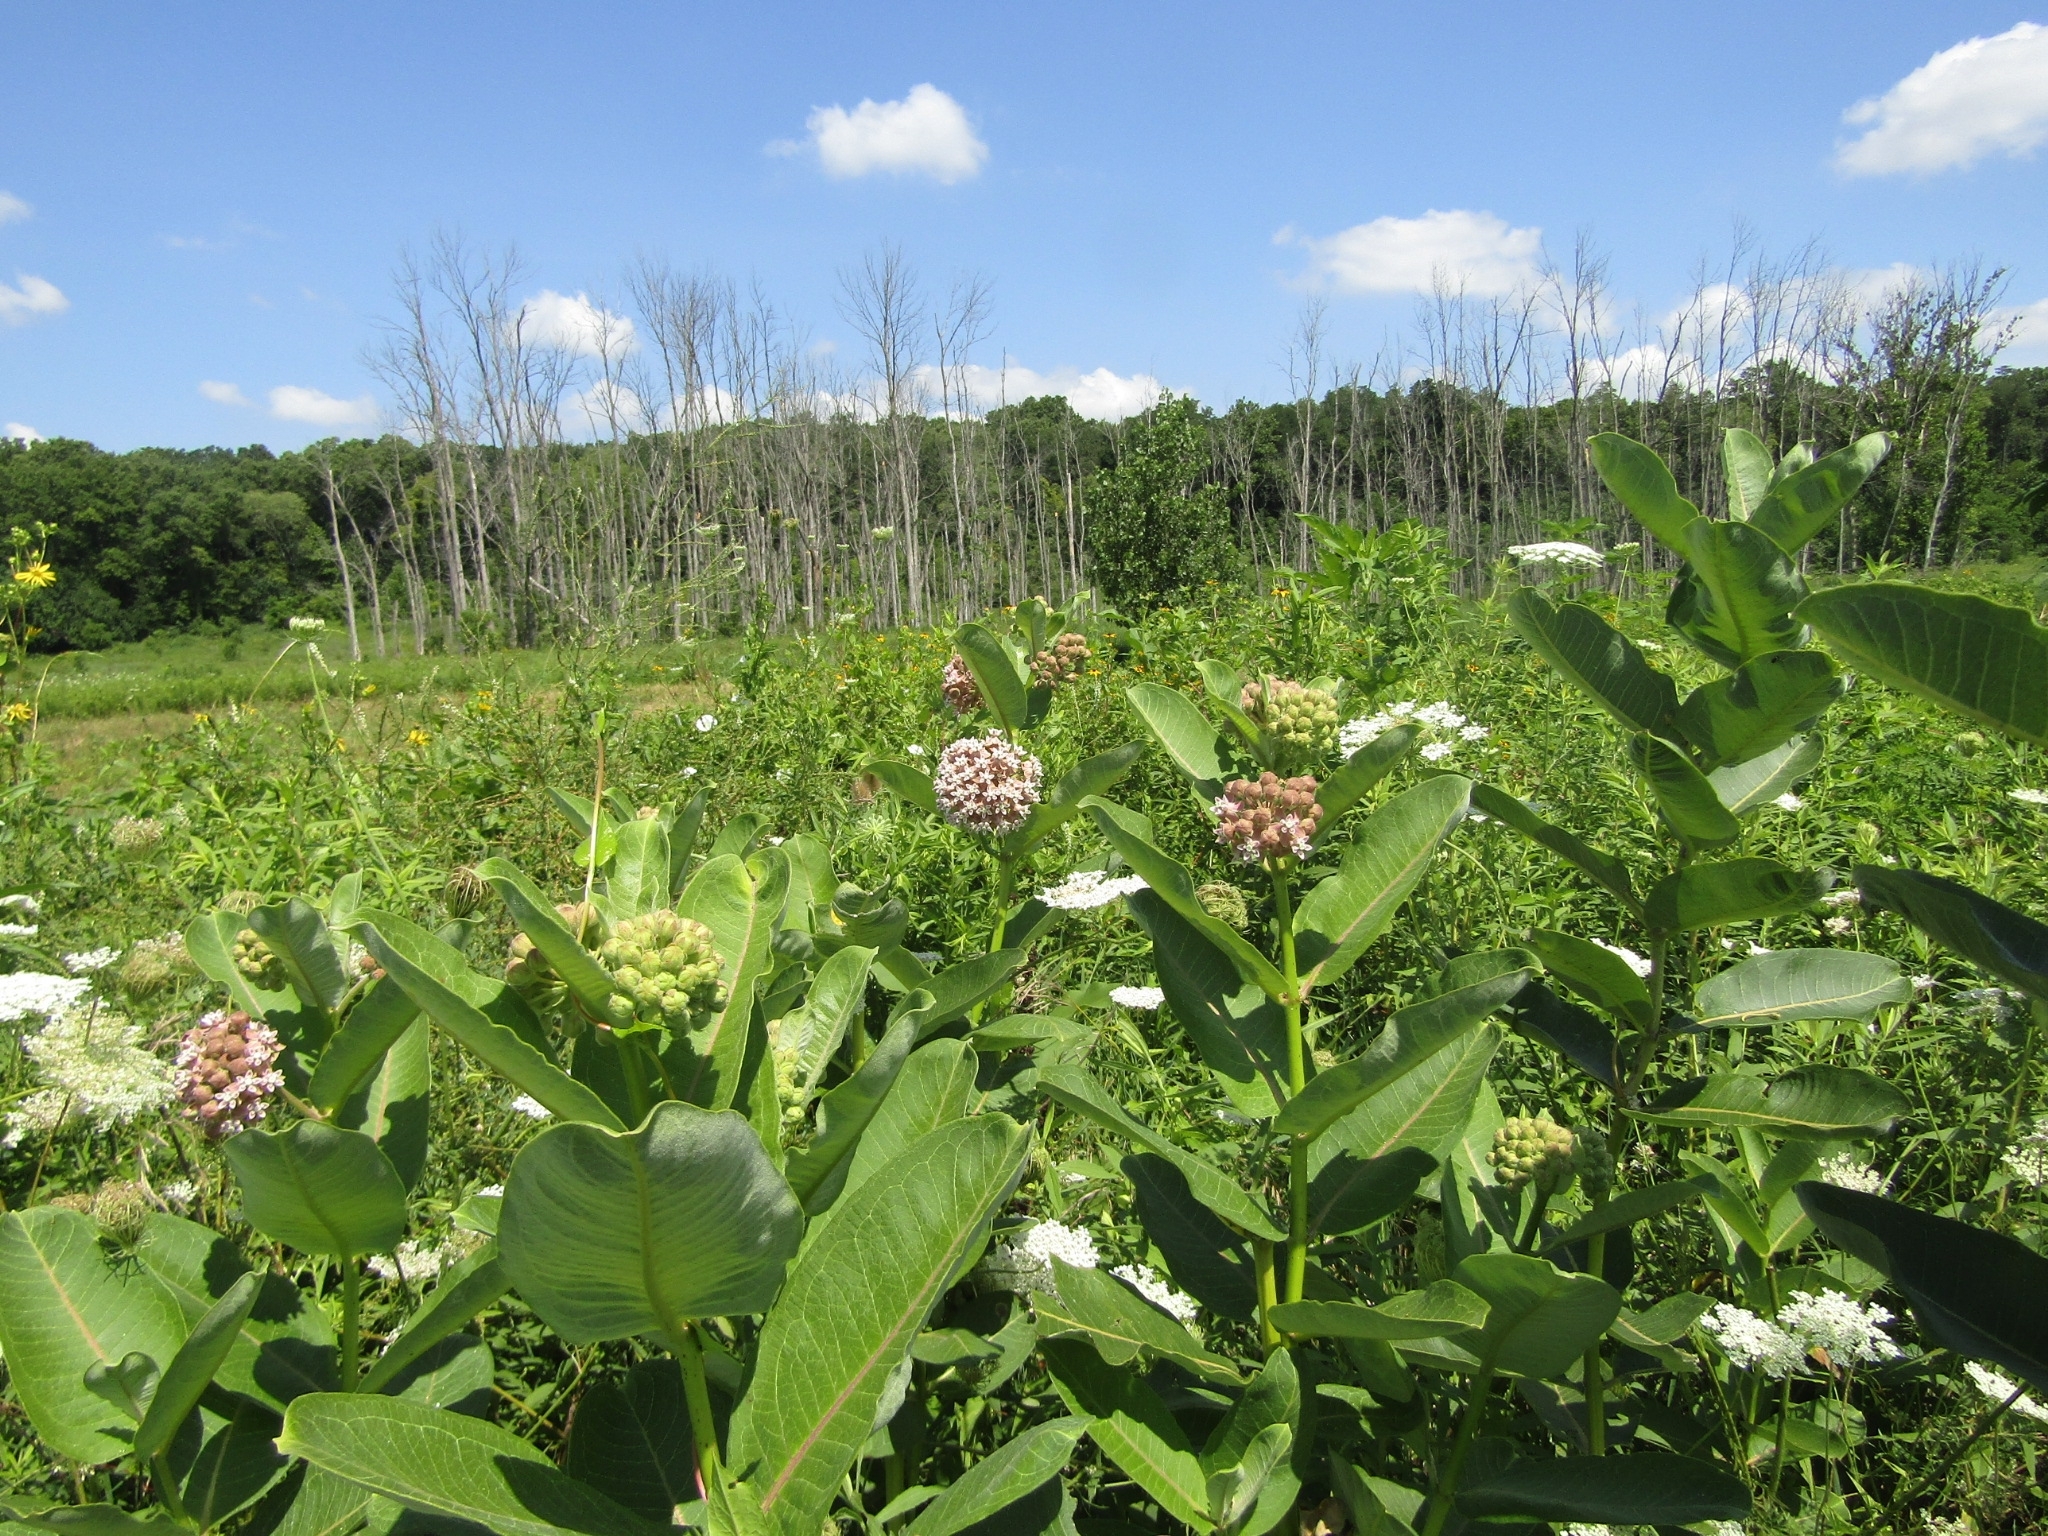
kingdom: Plantae
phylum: Tracheophyta
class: Magnoliopsida
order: Gentianales
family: Apocynaceae
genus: Asclepias
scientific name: Asclepias syriaca
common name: Common milkweed
